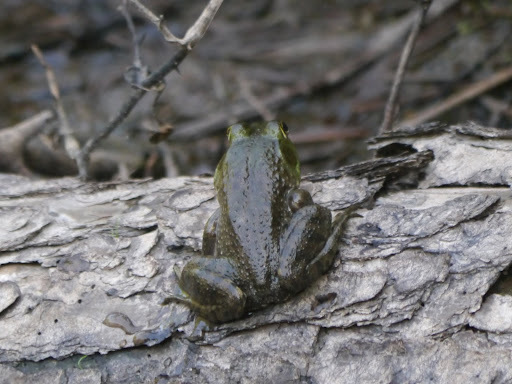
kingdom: Animalia
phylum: Chordata
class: Amphibia
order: Anura
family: Ranidae
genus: Lithobates
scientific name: Lithobates catesbeianus
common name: American bullfrog
